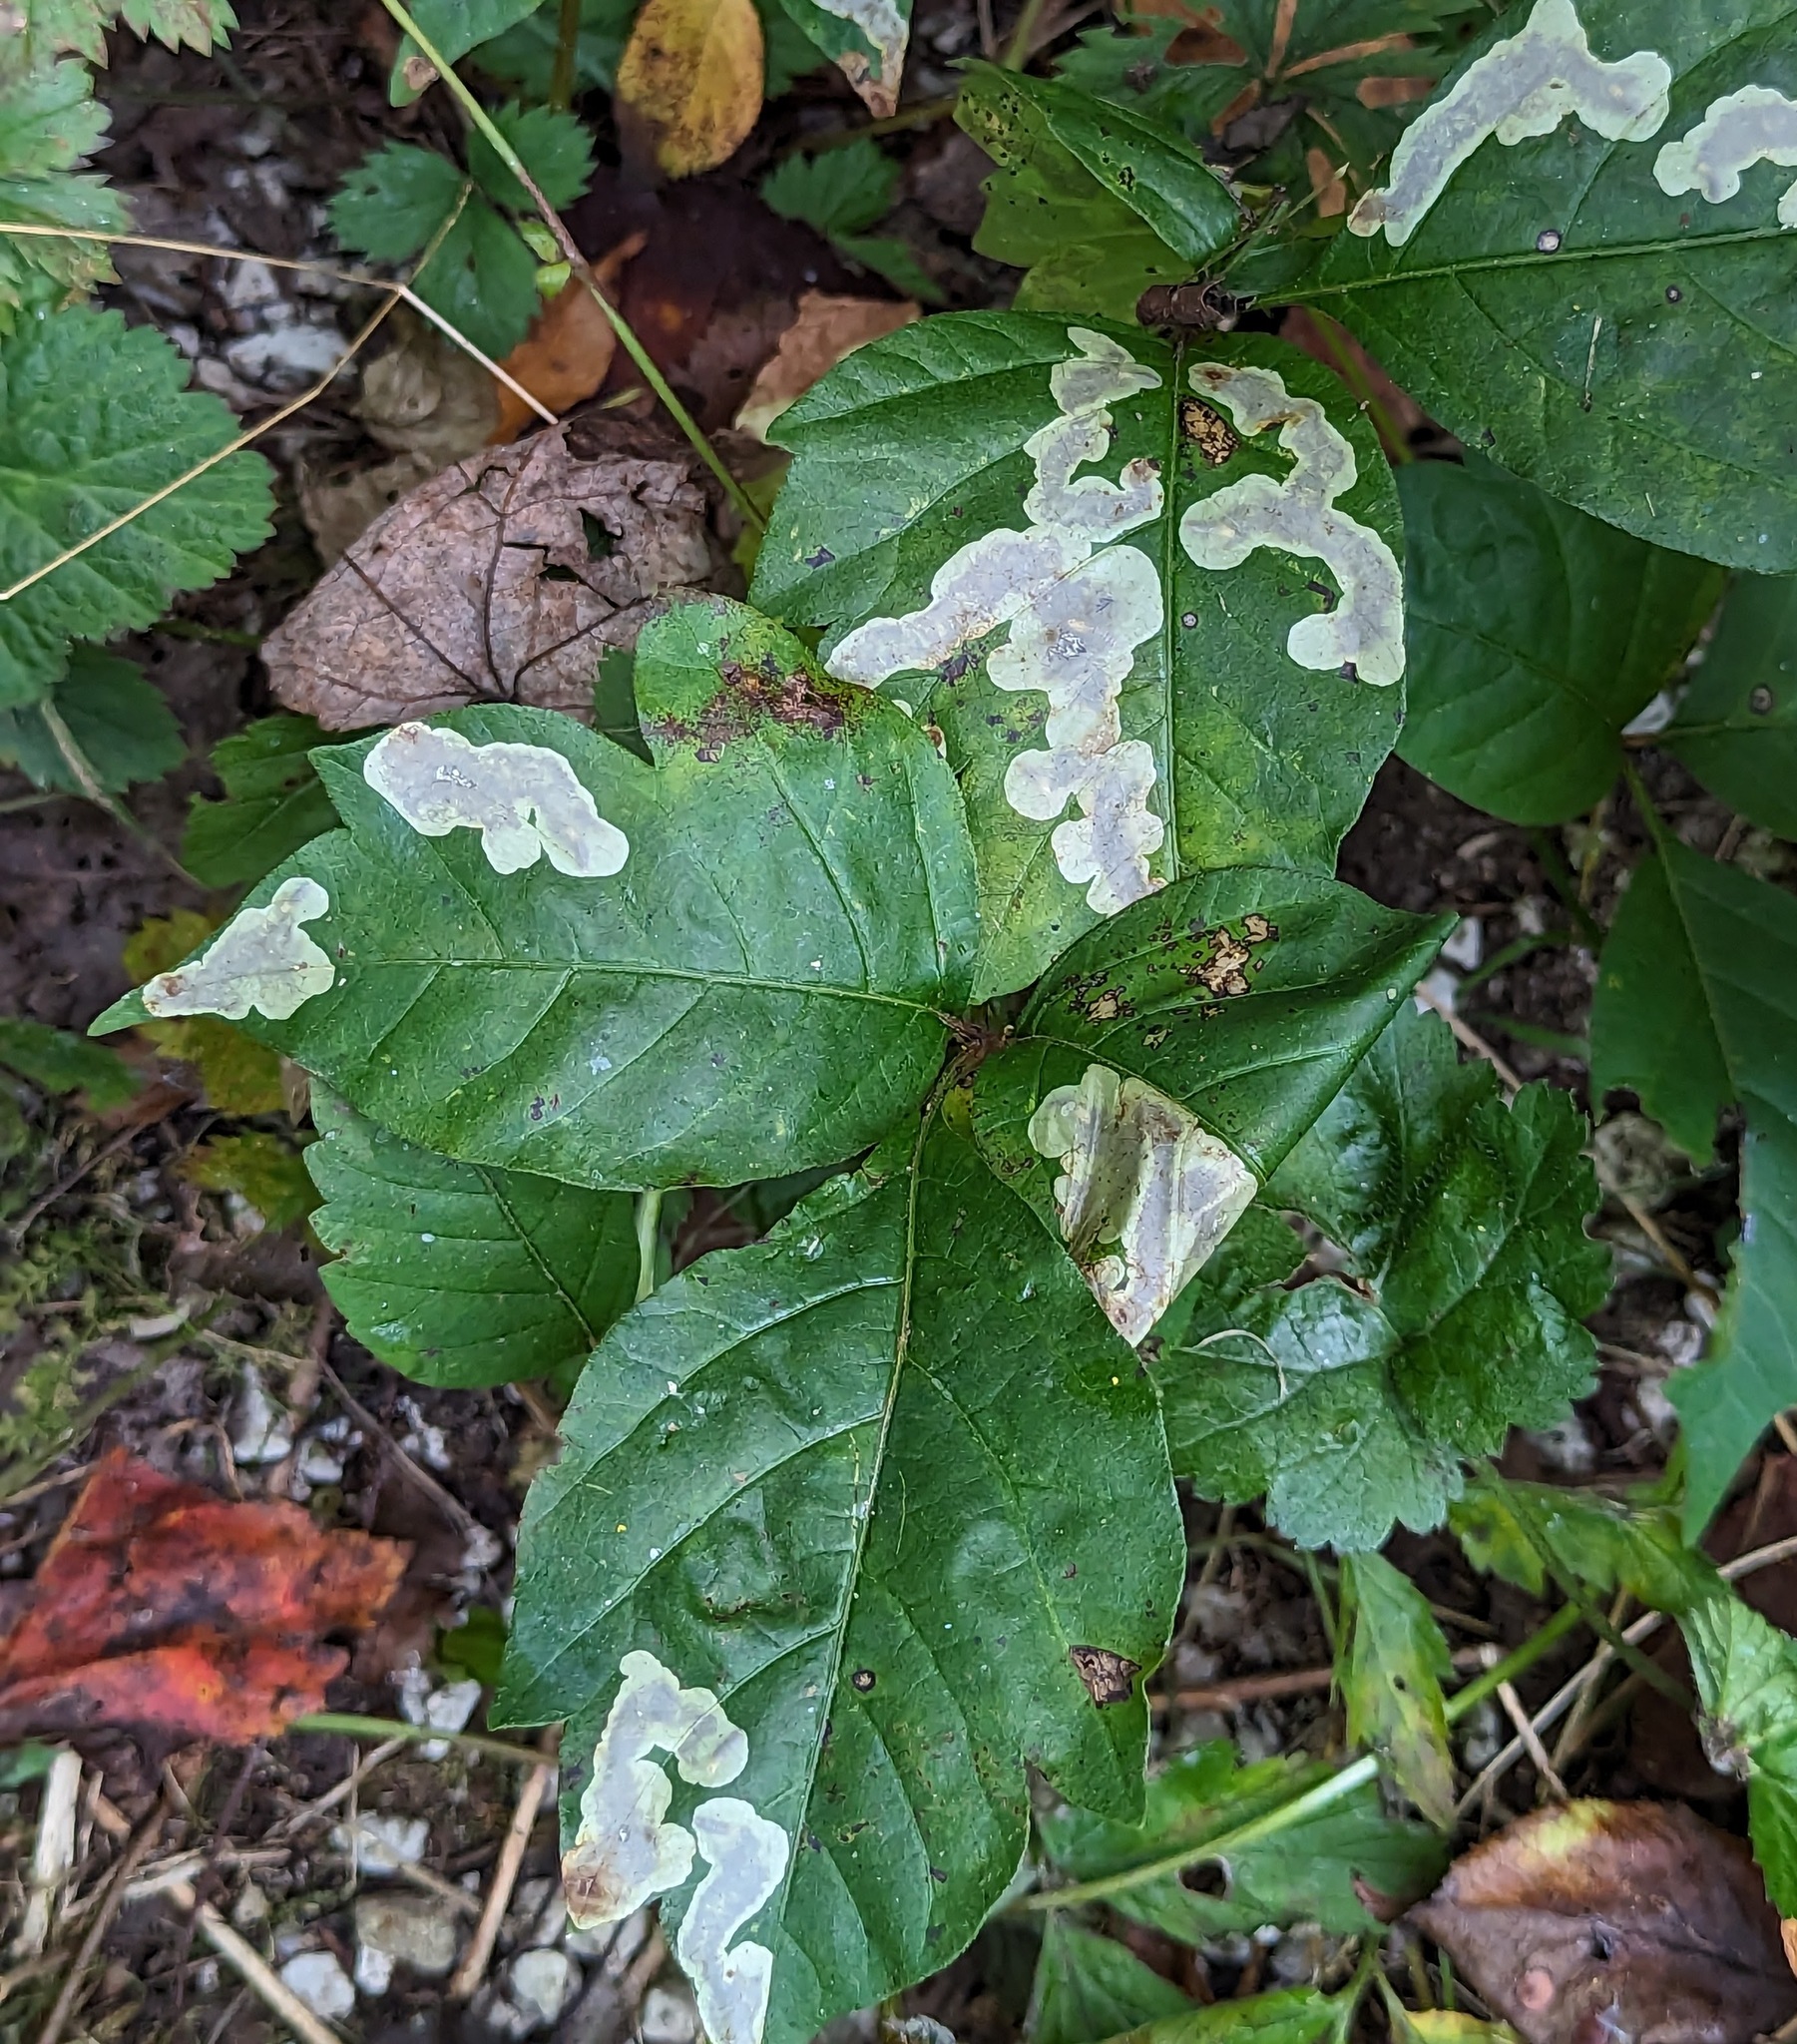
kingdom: Animalia
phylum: Arthropoda
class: Insecta
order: Lepidoptera
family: Gracillariidae
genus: Cameraria
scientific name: Cameraria guttifinitella
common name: Poison ivy leaf-miner moth
